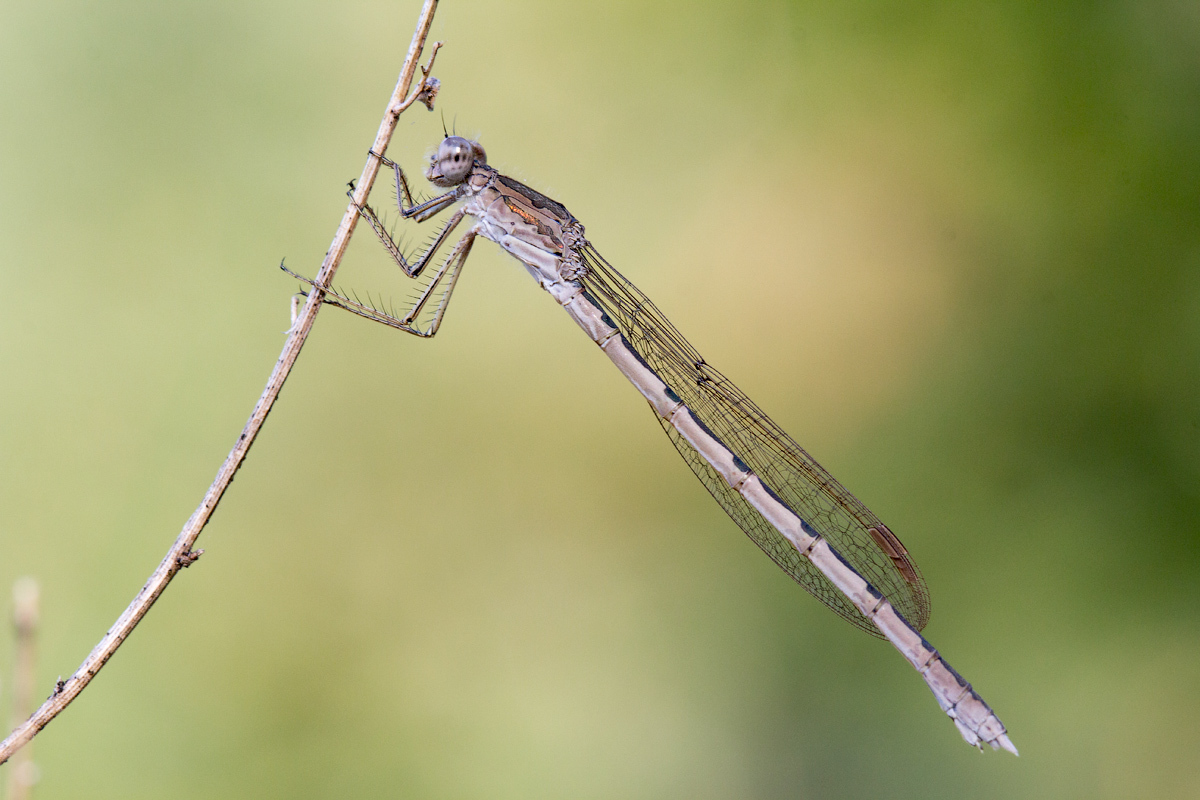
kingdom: Animalia
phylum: Arthropoda
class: Insecta
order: Odonata
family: Lestidae
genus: Sympecma
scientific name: Sympecma paedisca
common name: Siberian winter damsel
